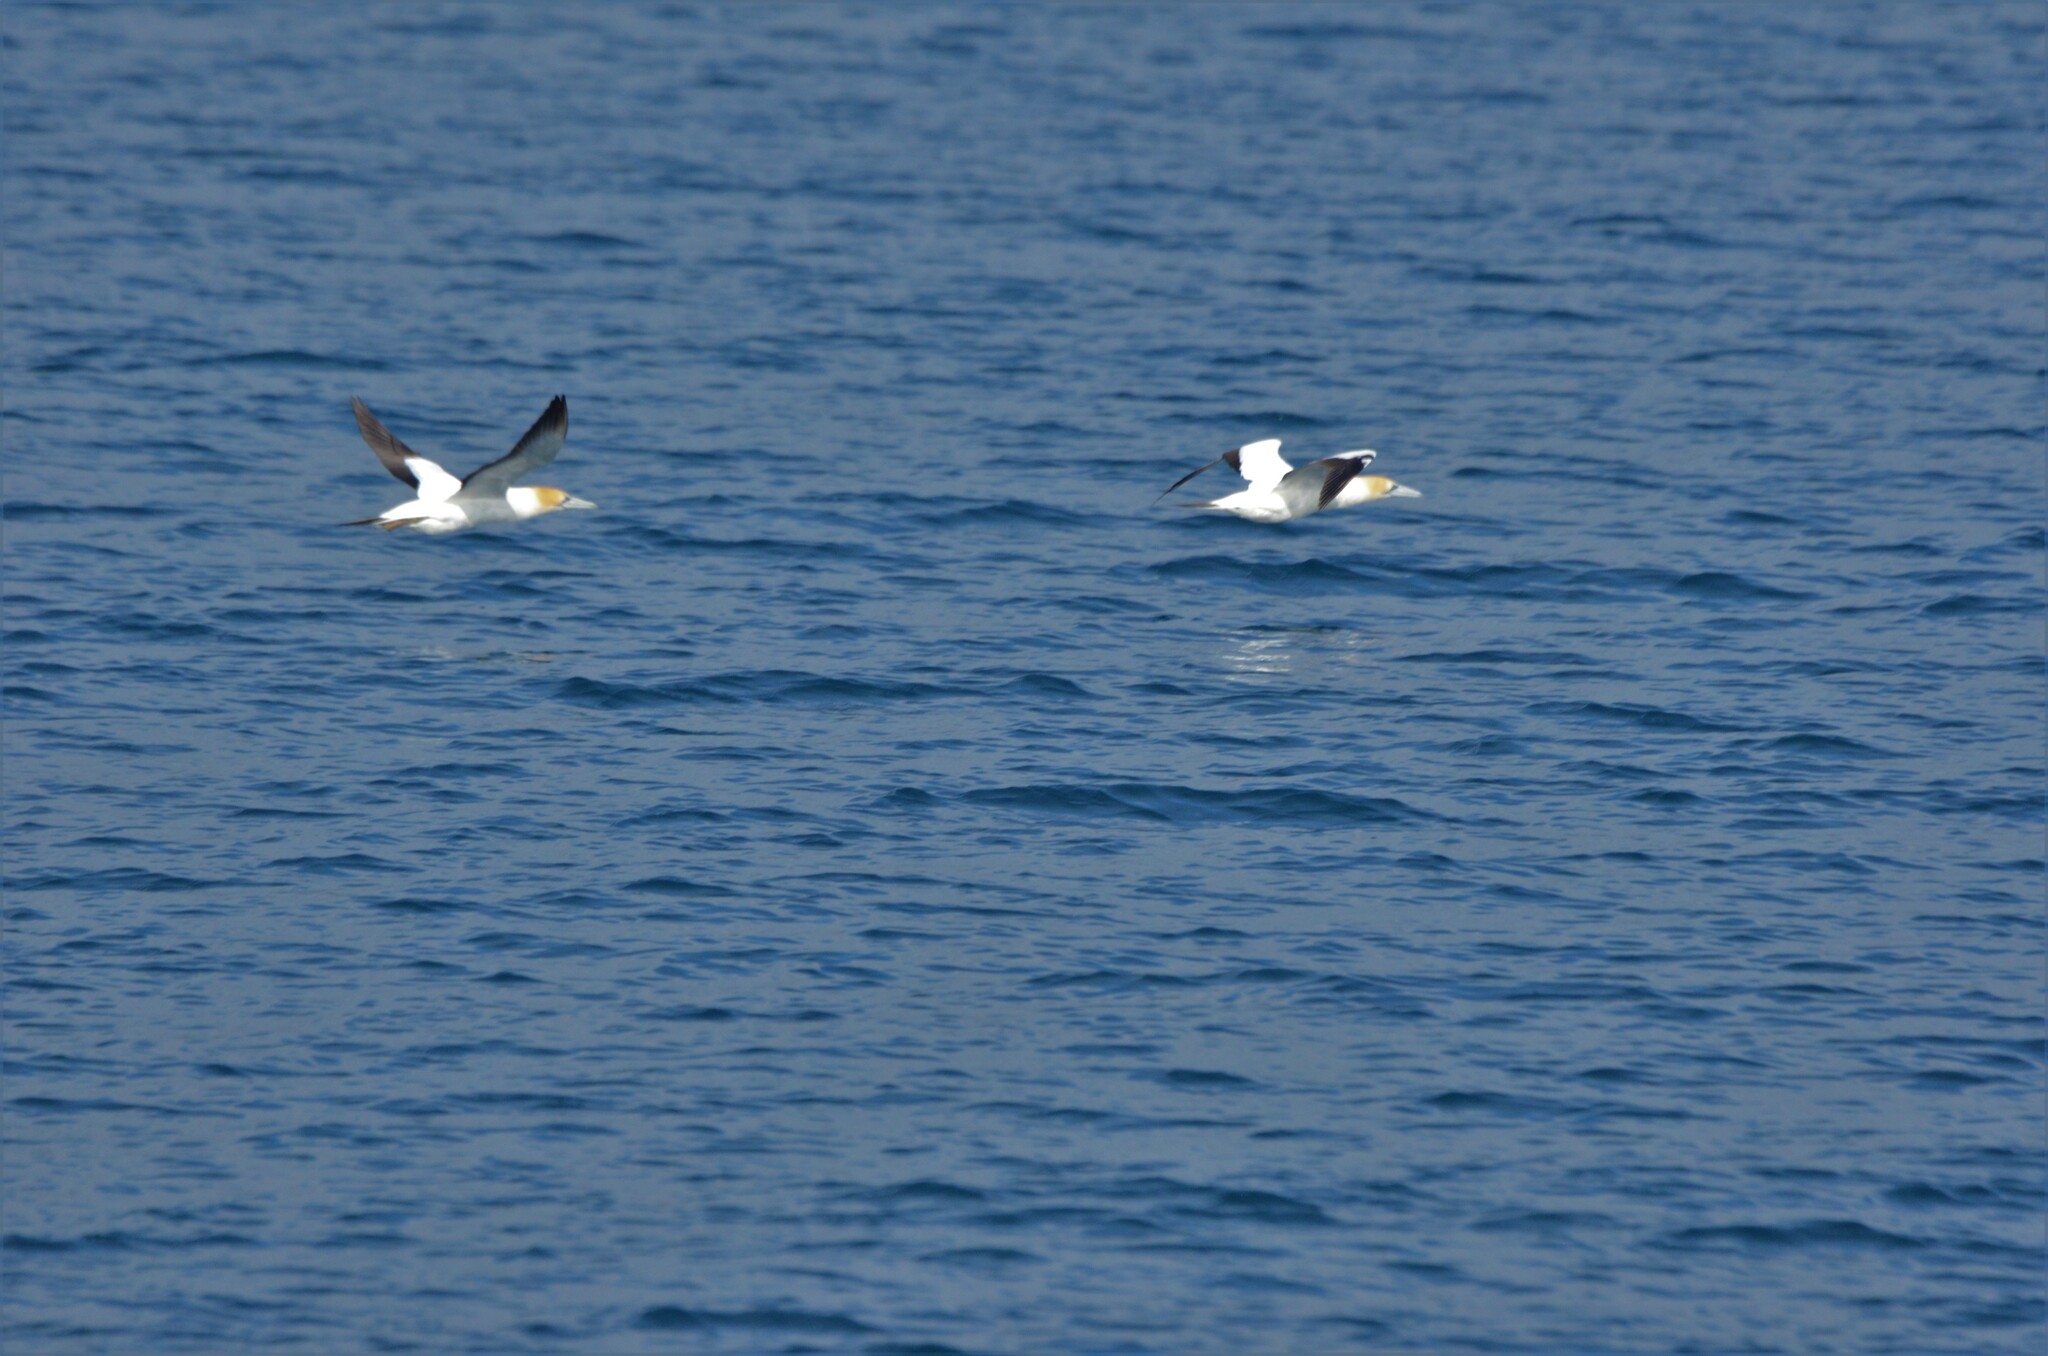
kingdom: Animalia
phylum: Chordata
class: Aves
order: Suliformes
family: Sulidae
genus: Morus
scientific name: Morus serrator
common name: Australasian gannet
